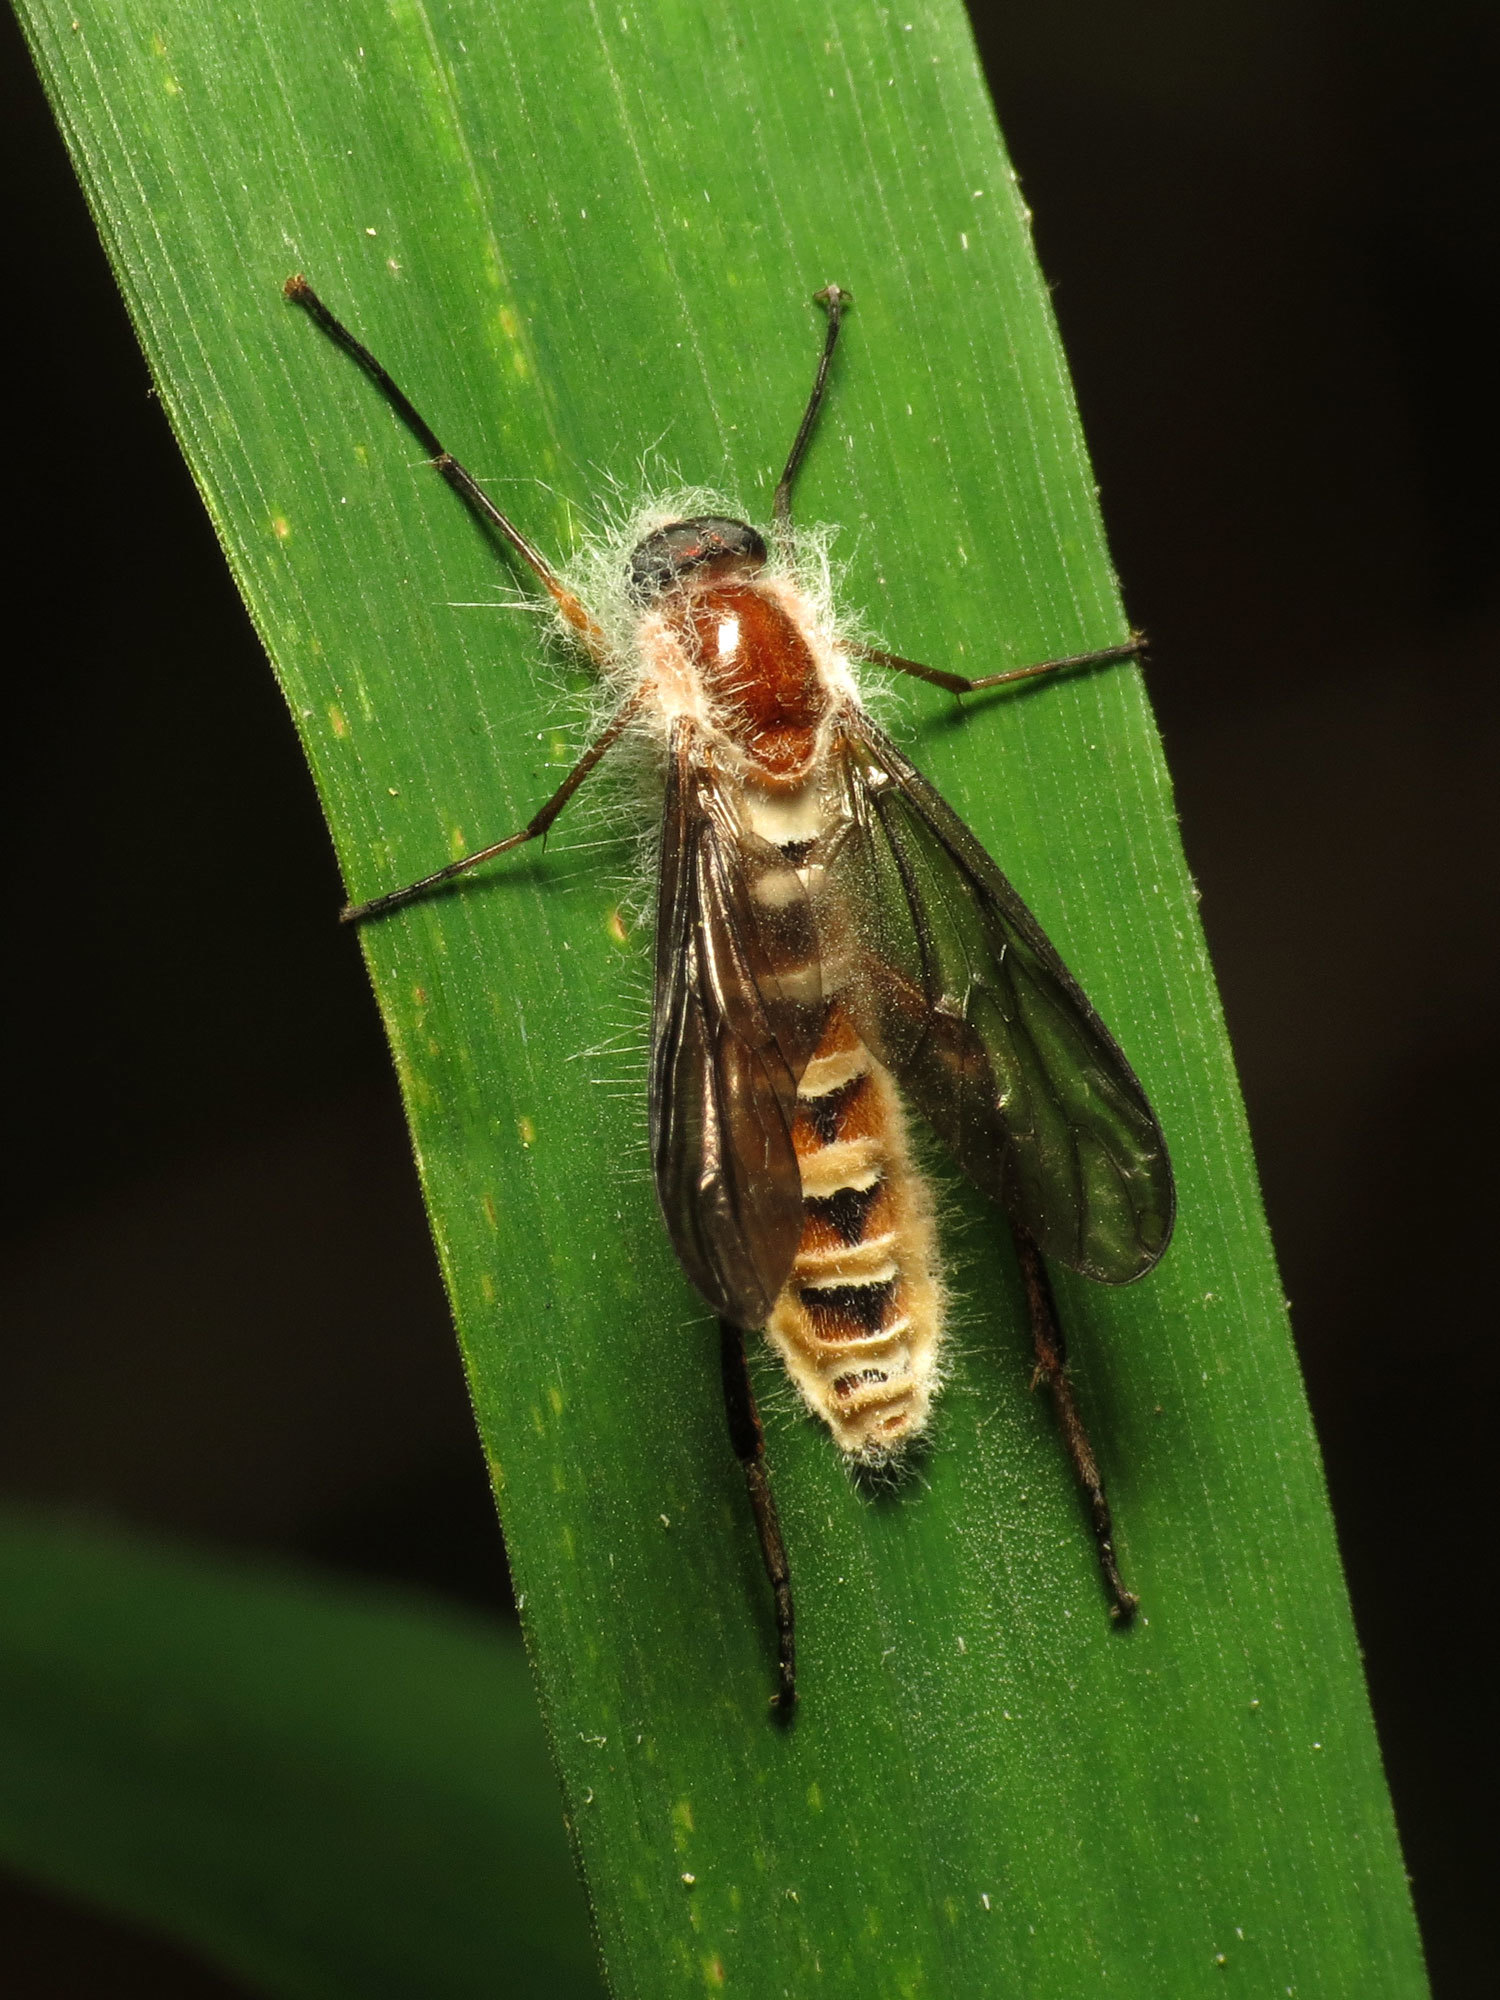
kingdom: Animalia
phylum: Arthropoda
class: Insecta
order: Diptera
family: Xylophagidae
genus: Dialysis
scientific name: Dialysis fasciventris
